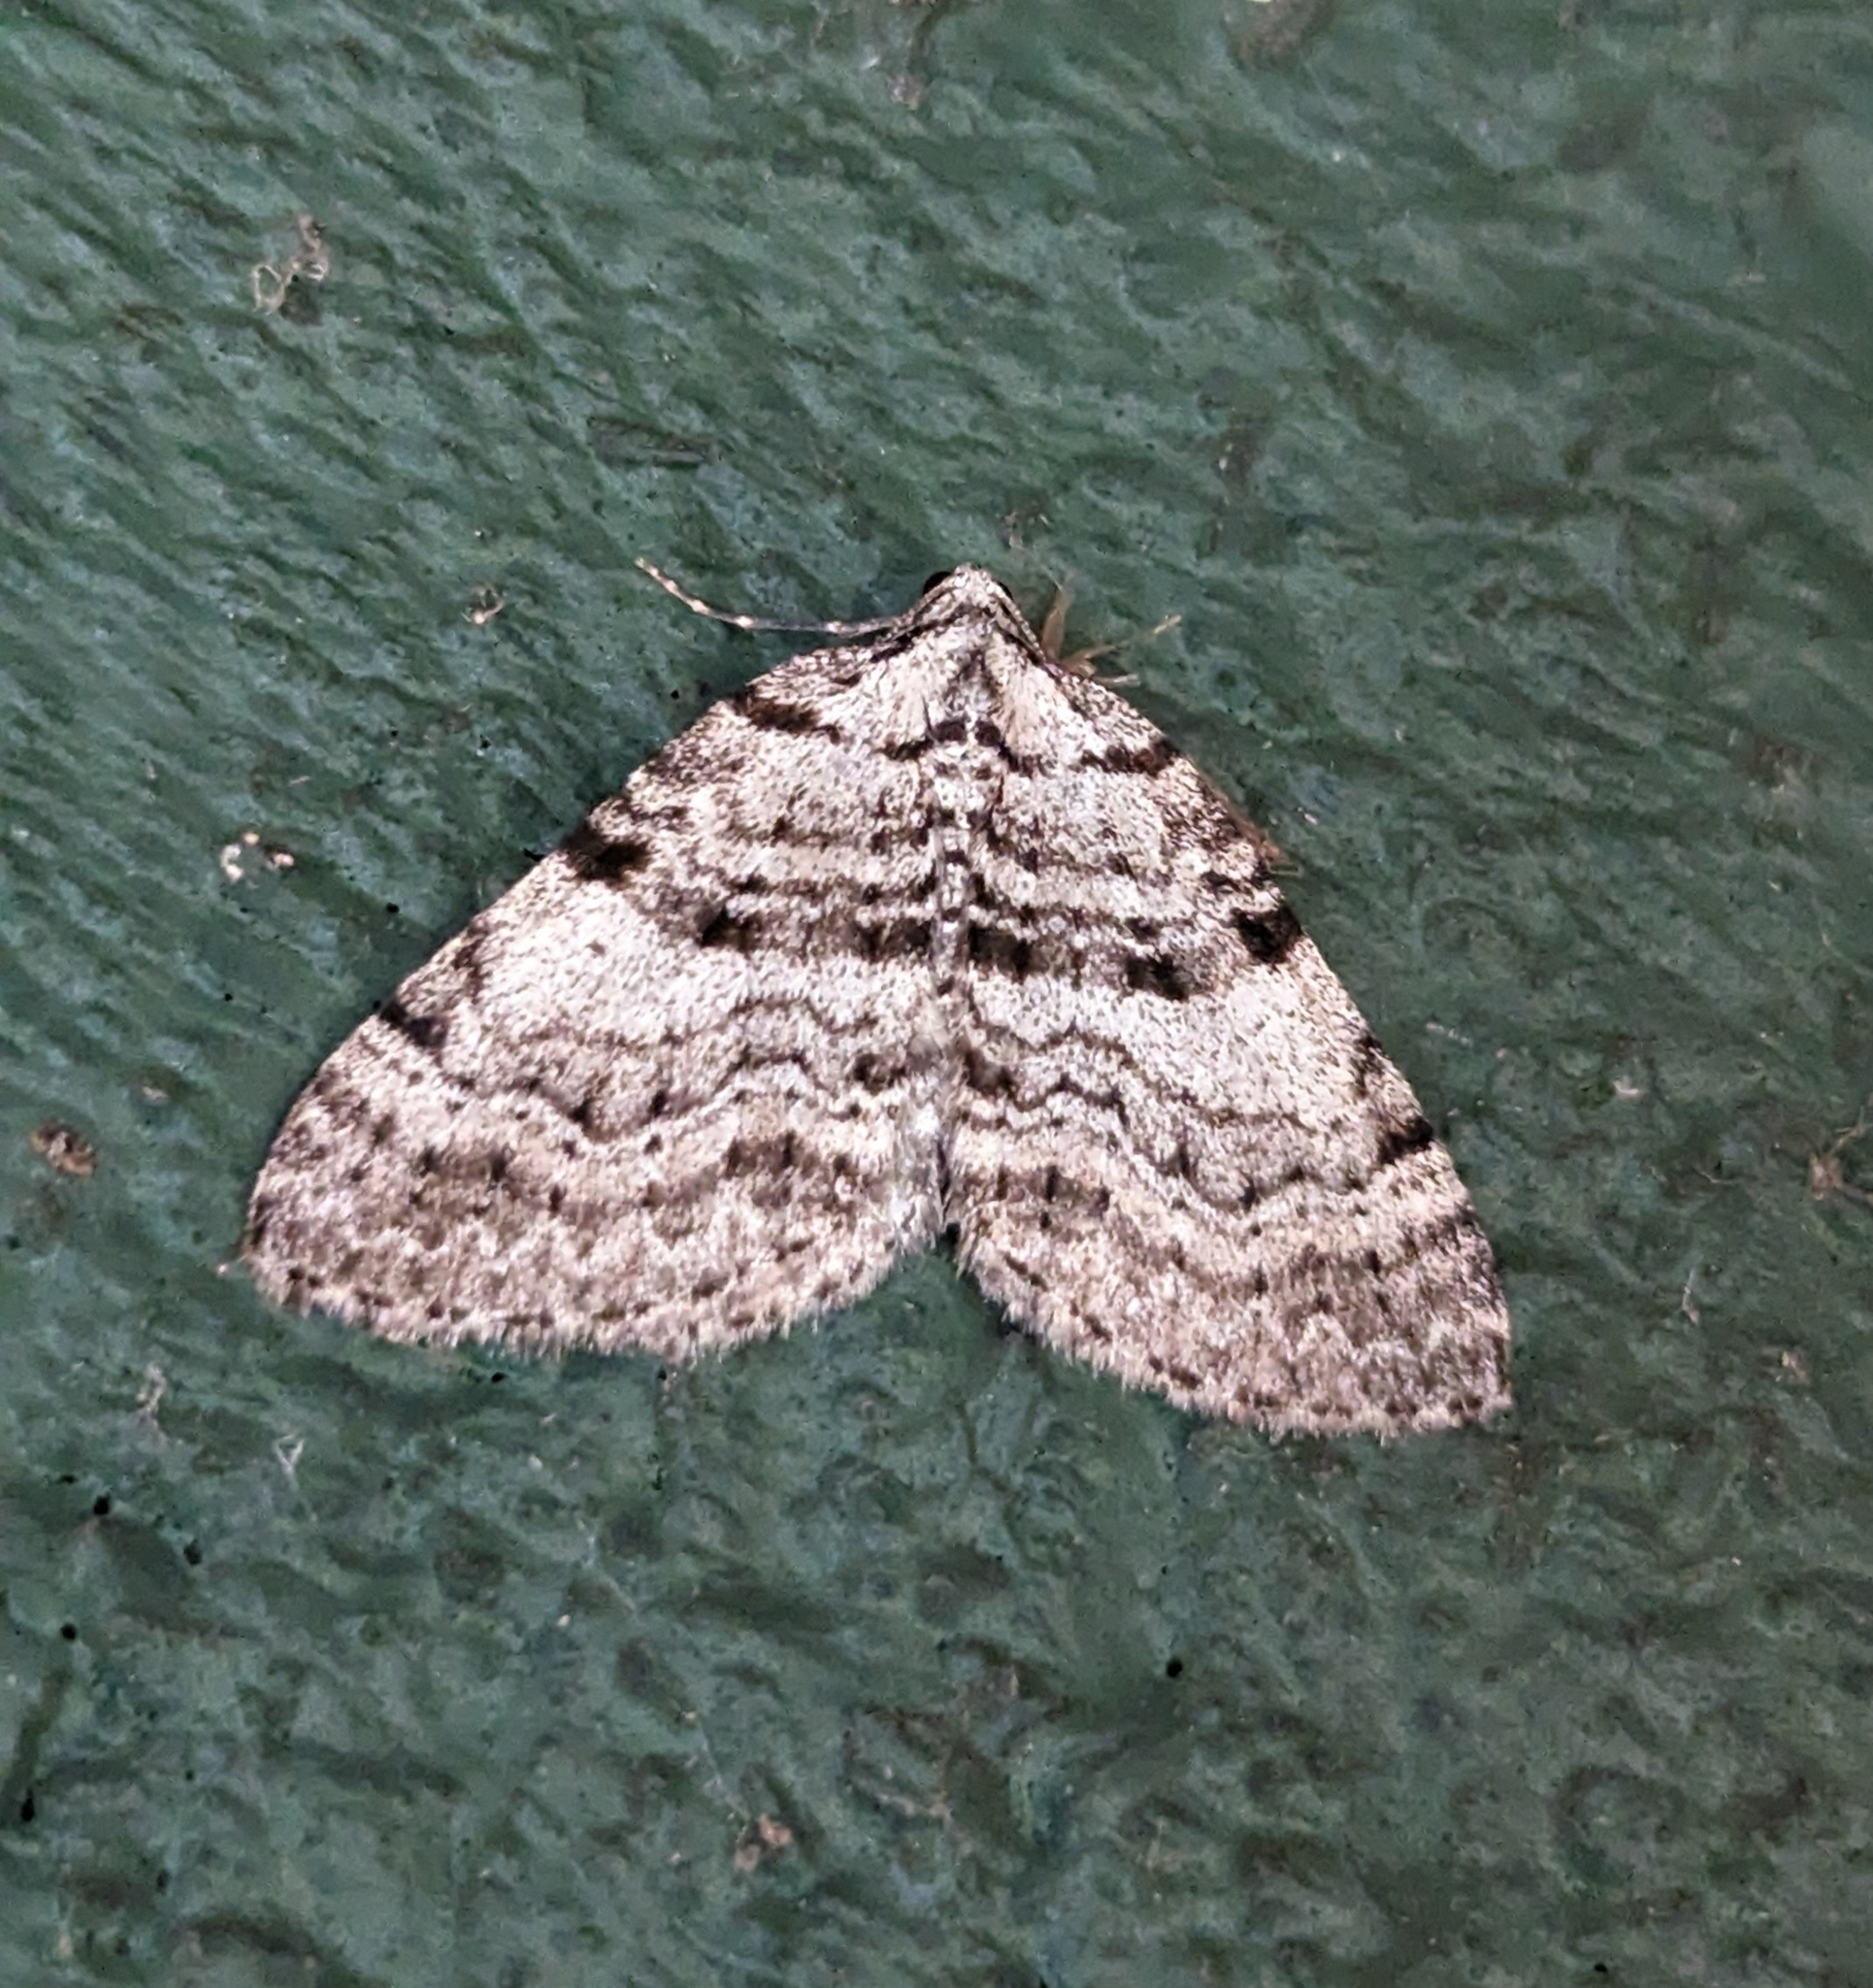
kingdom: Animalia
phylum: Arthropoda
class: Insecta
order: Lepidoptera
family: Geometridae
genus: Perizoma
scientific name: Perizoma curvilinea
